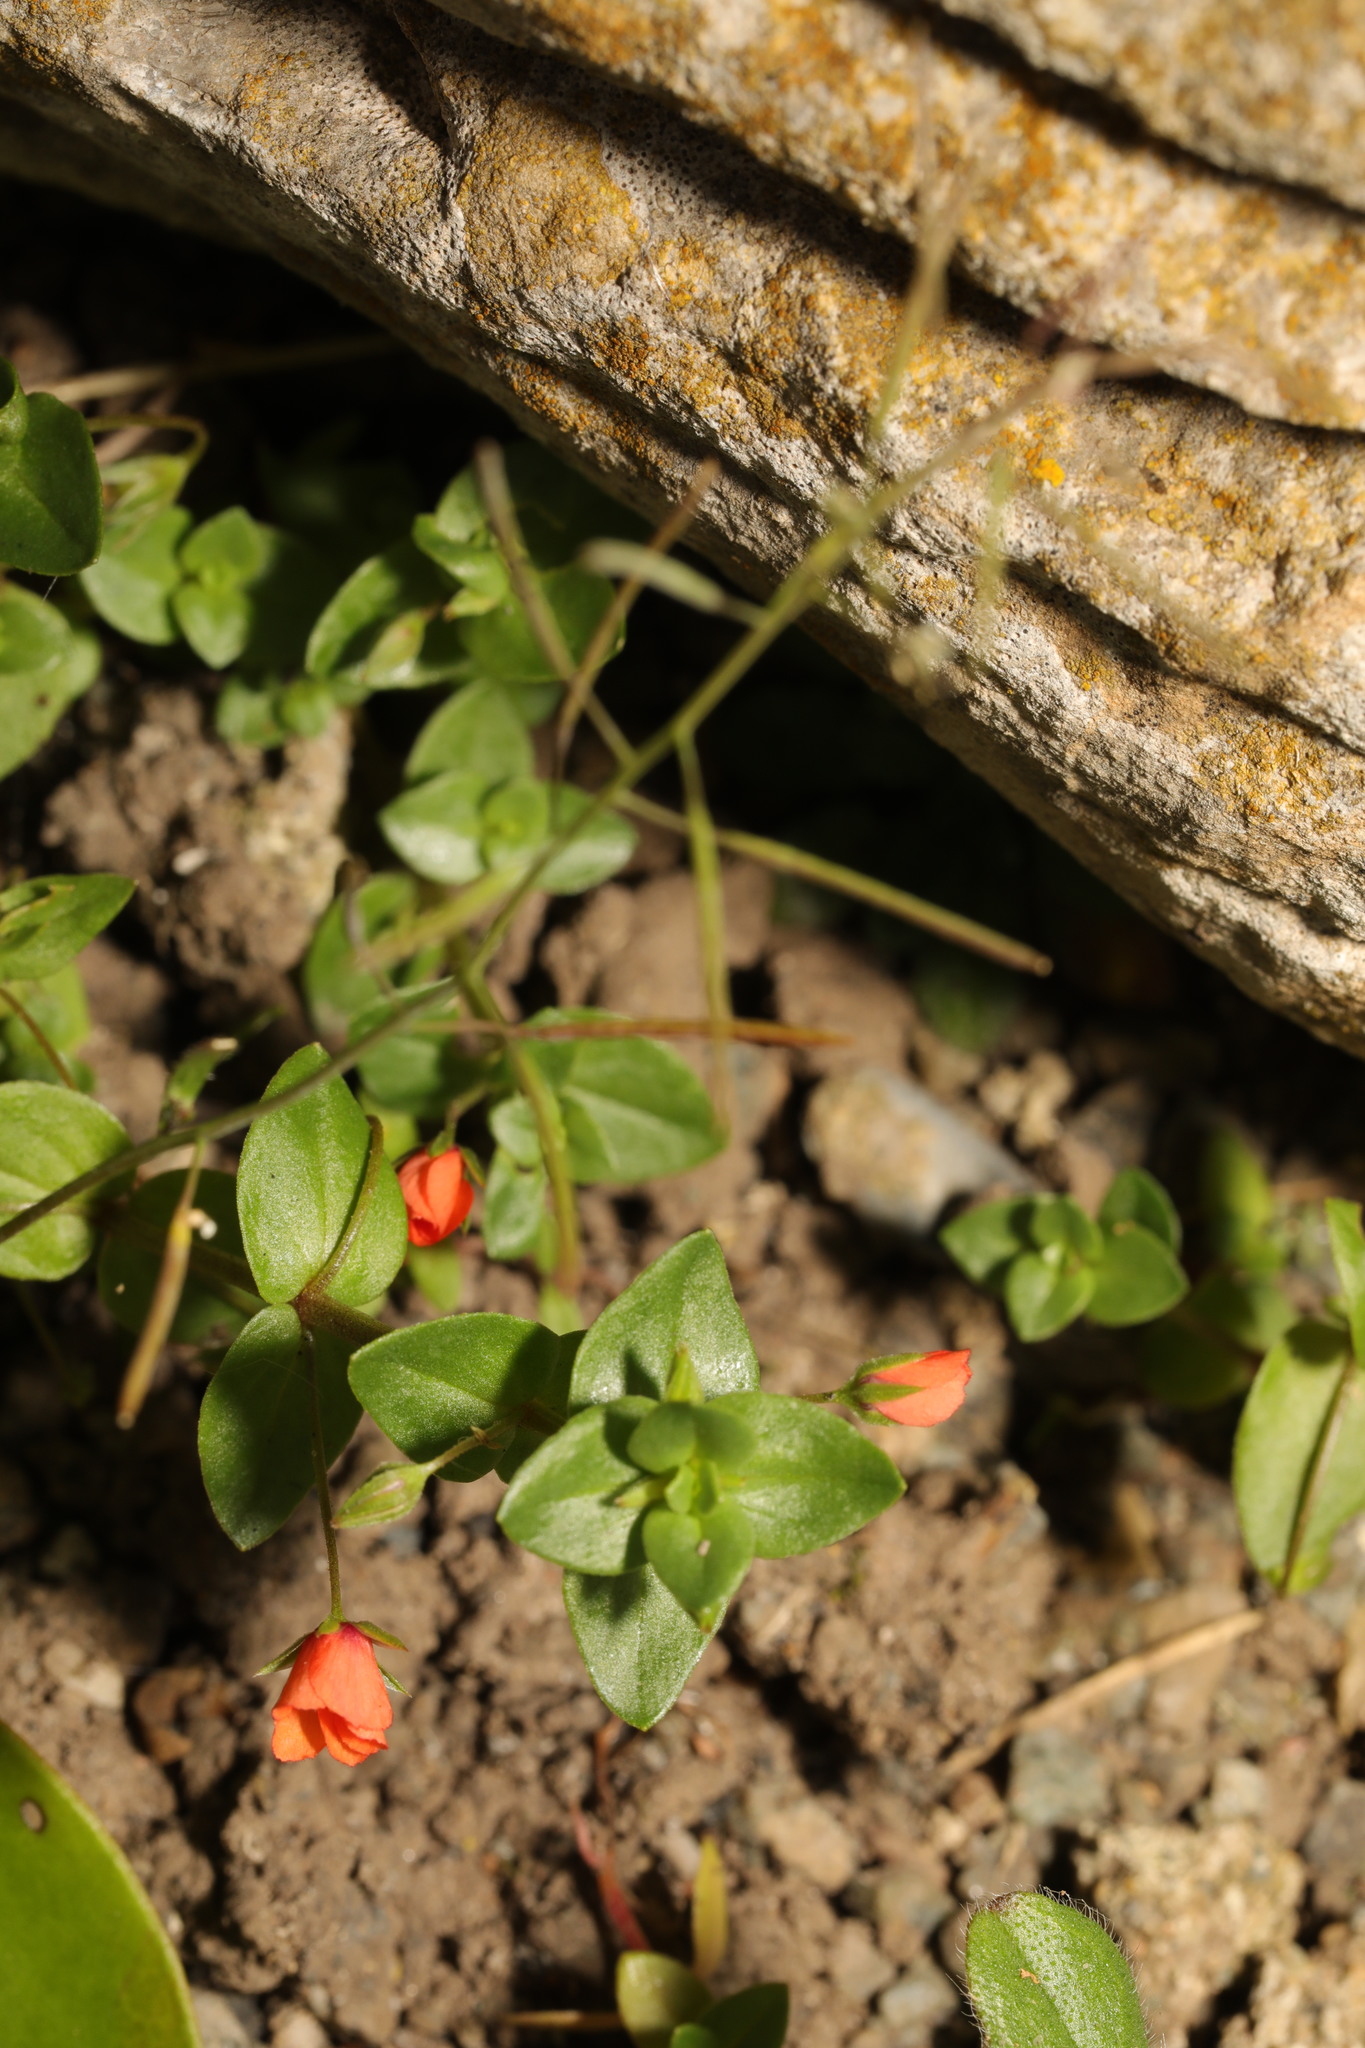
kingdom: Plantae
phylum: Tracheophyta
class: Magnoliopsida
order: Ericales
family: Primulaceae
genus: Lysimachia
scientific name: Lysimachia arvensis
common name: Scarlet pimpernel
